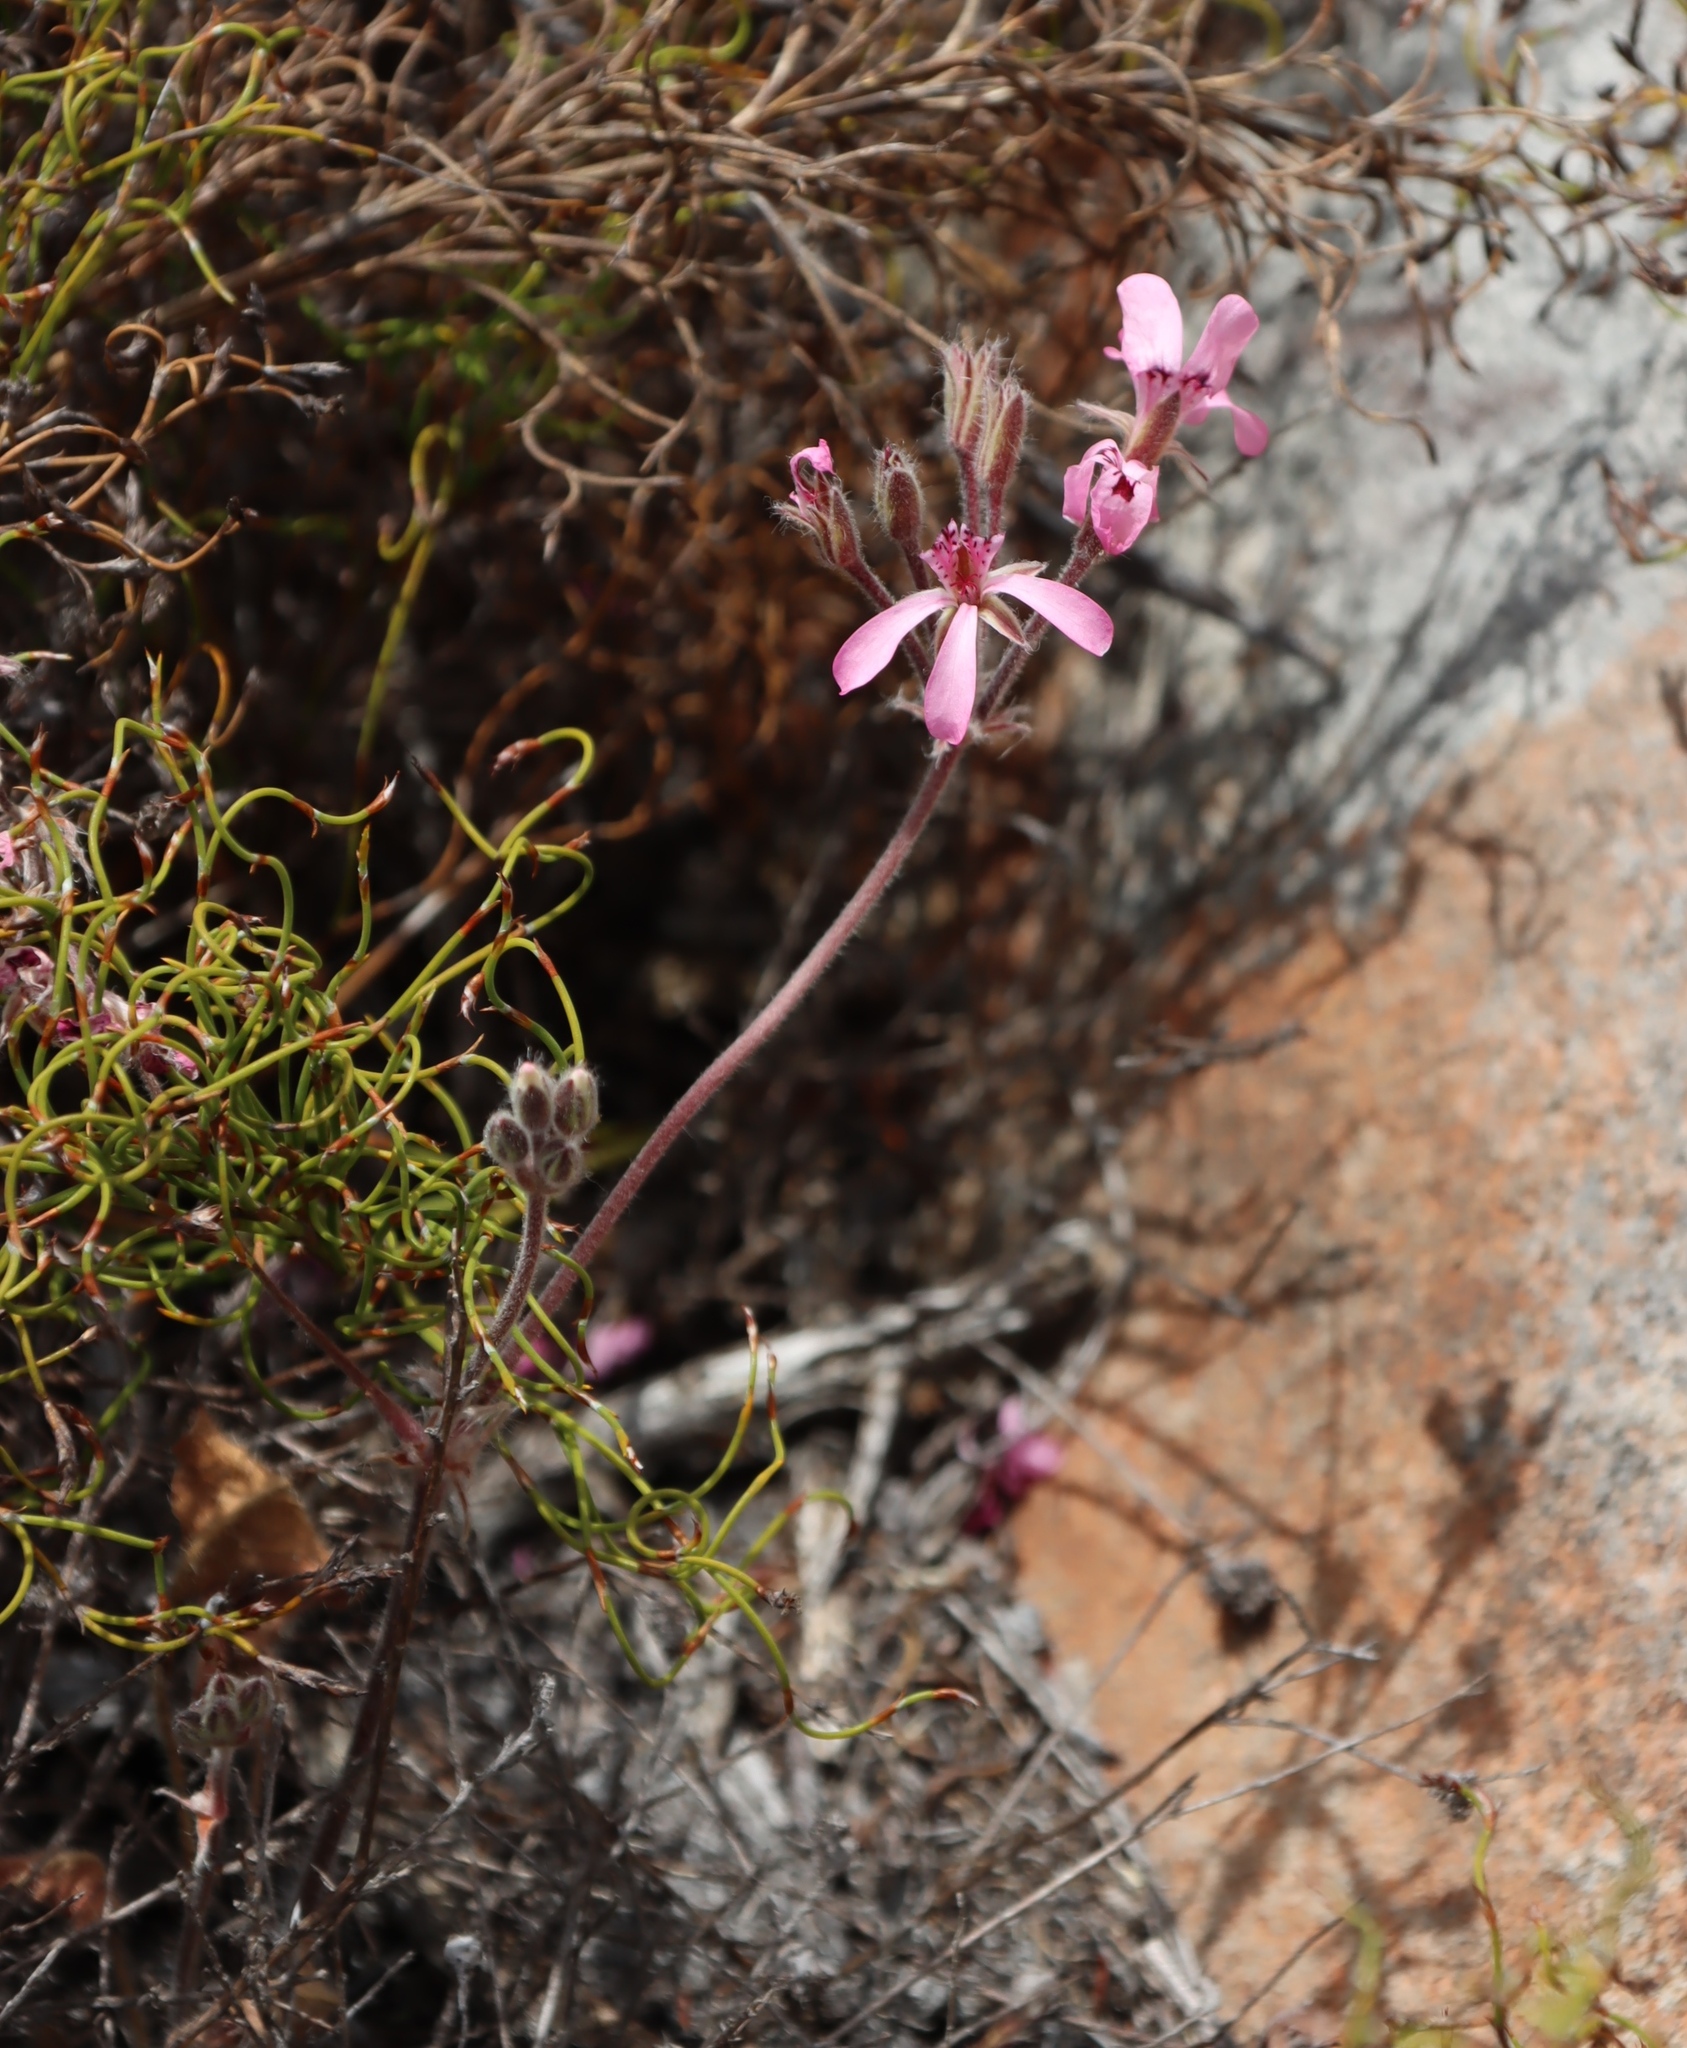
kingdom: Plantae
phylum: Tracheophyta
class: Magnoliopsida
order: Geraniales
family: Geraniaceae
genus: Pelargonium
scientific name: Pelargonium psammophilum
